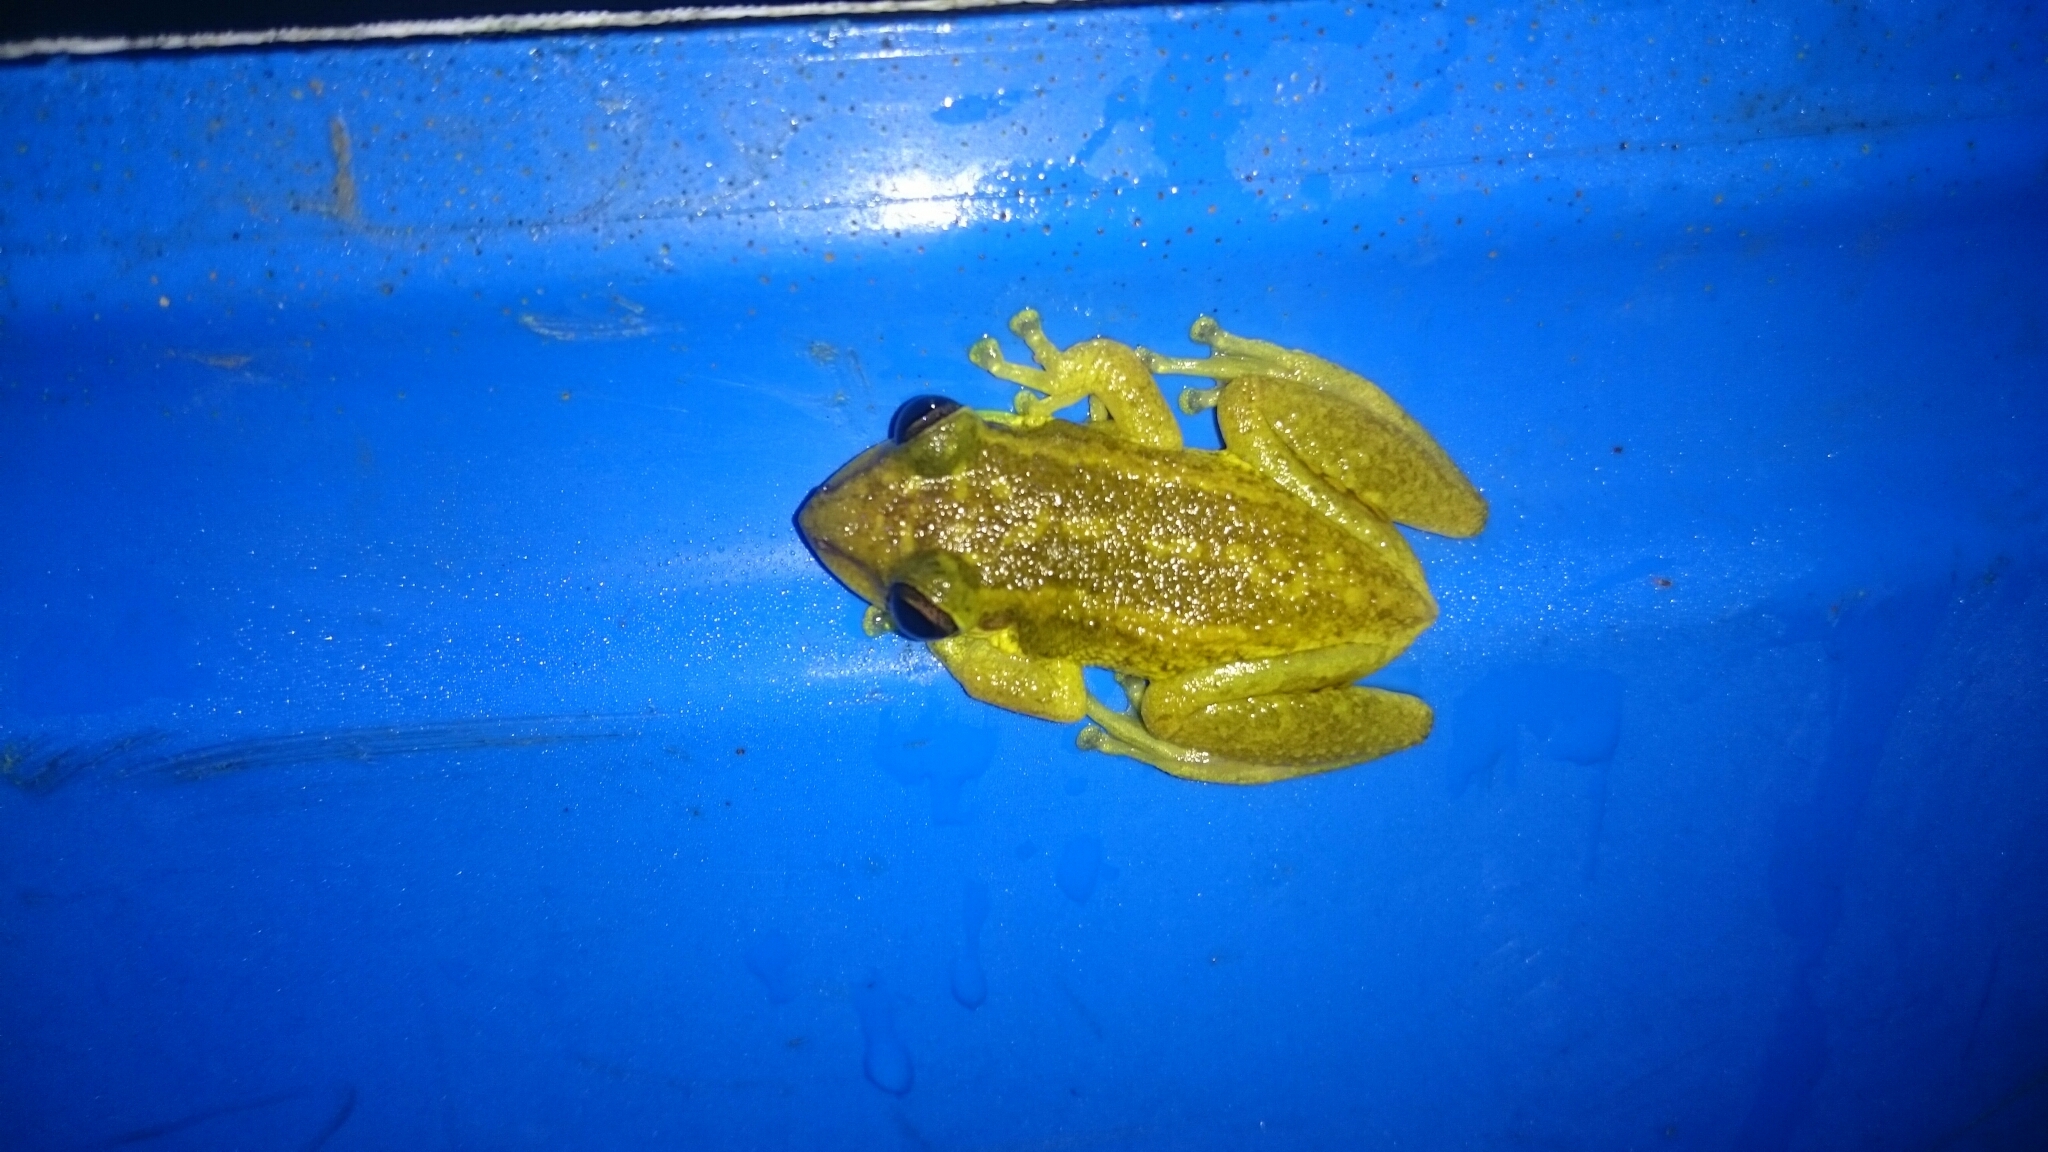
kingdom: Animalia
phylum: Chordata
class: Amphibia
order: Anura
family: Hylidae
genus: Scinax
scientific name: Scinax ruber
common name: Red snouted treefrog
